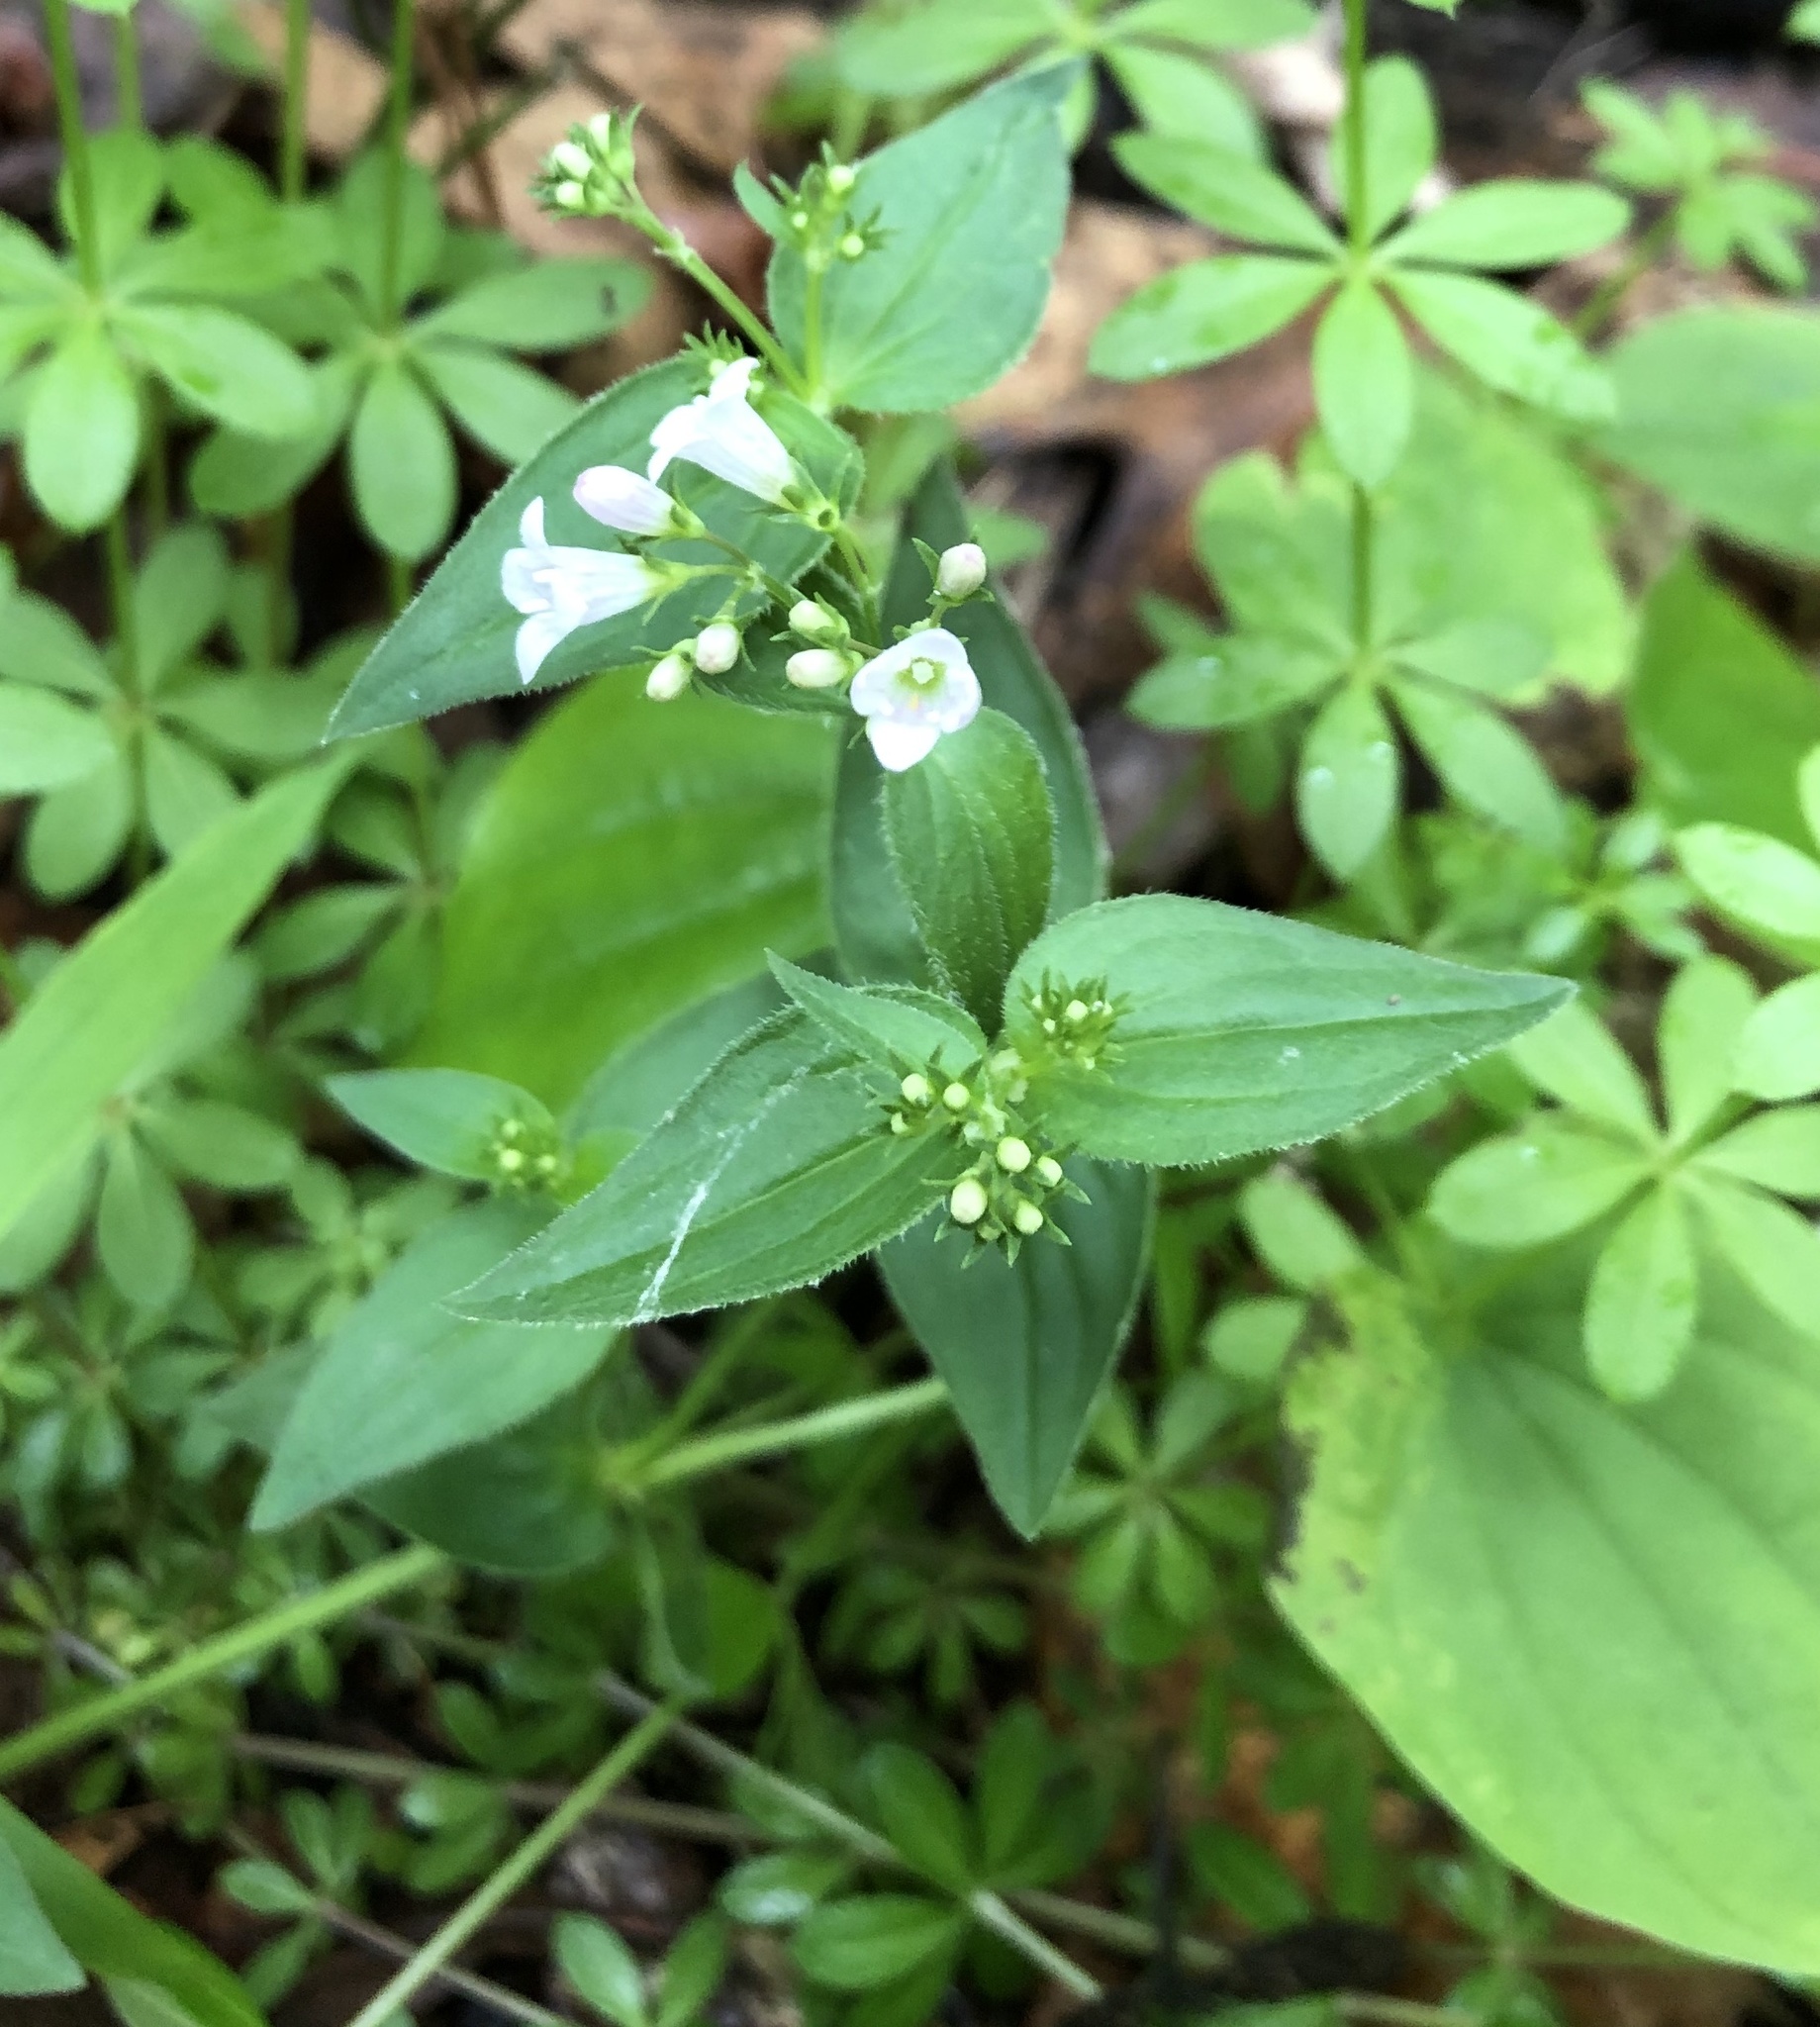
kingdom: Plantae
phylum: Tracheophyta
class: Magnoliopsida
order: Gentianales
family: Rubiaceae
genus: Houstonia
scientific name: Houstonia purpurea
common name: Summer bluet
